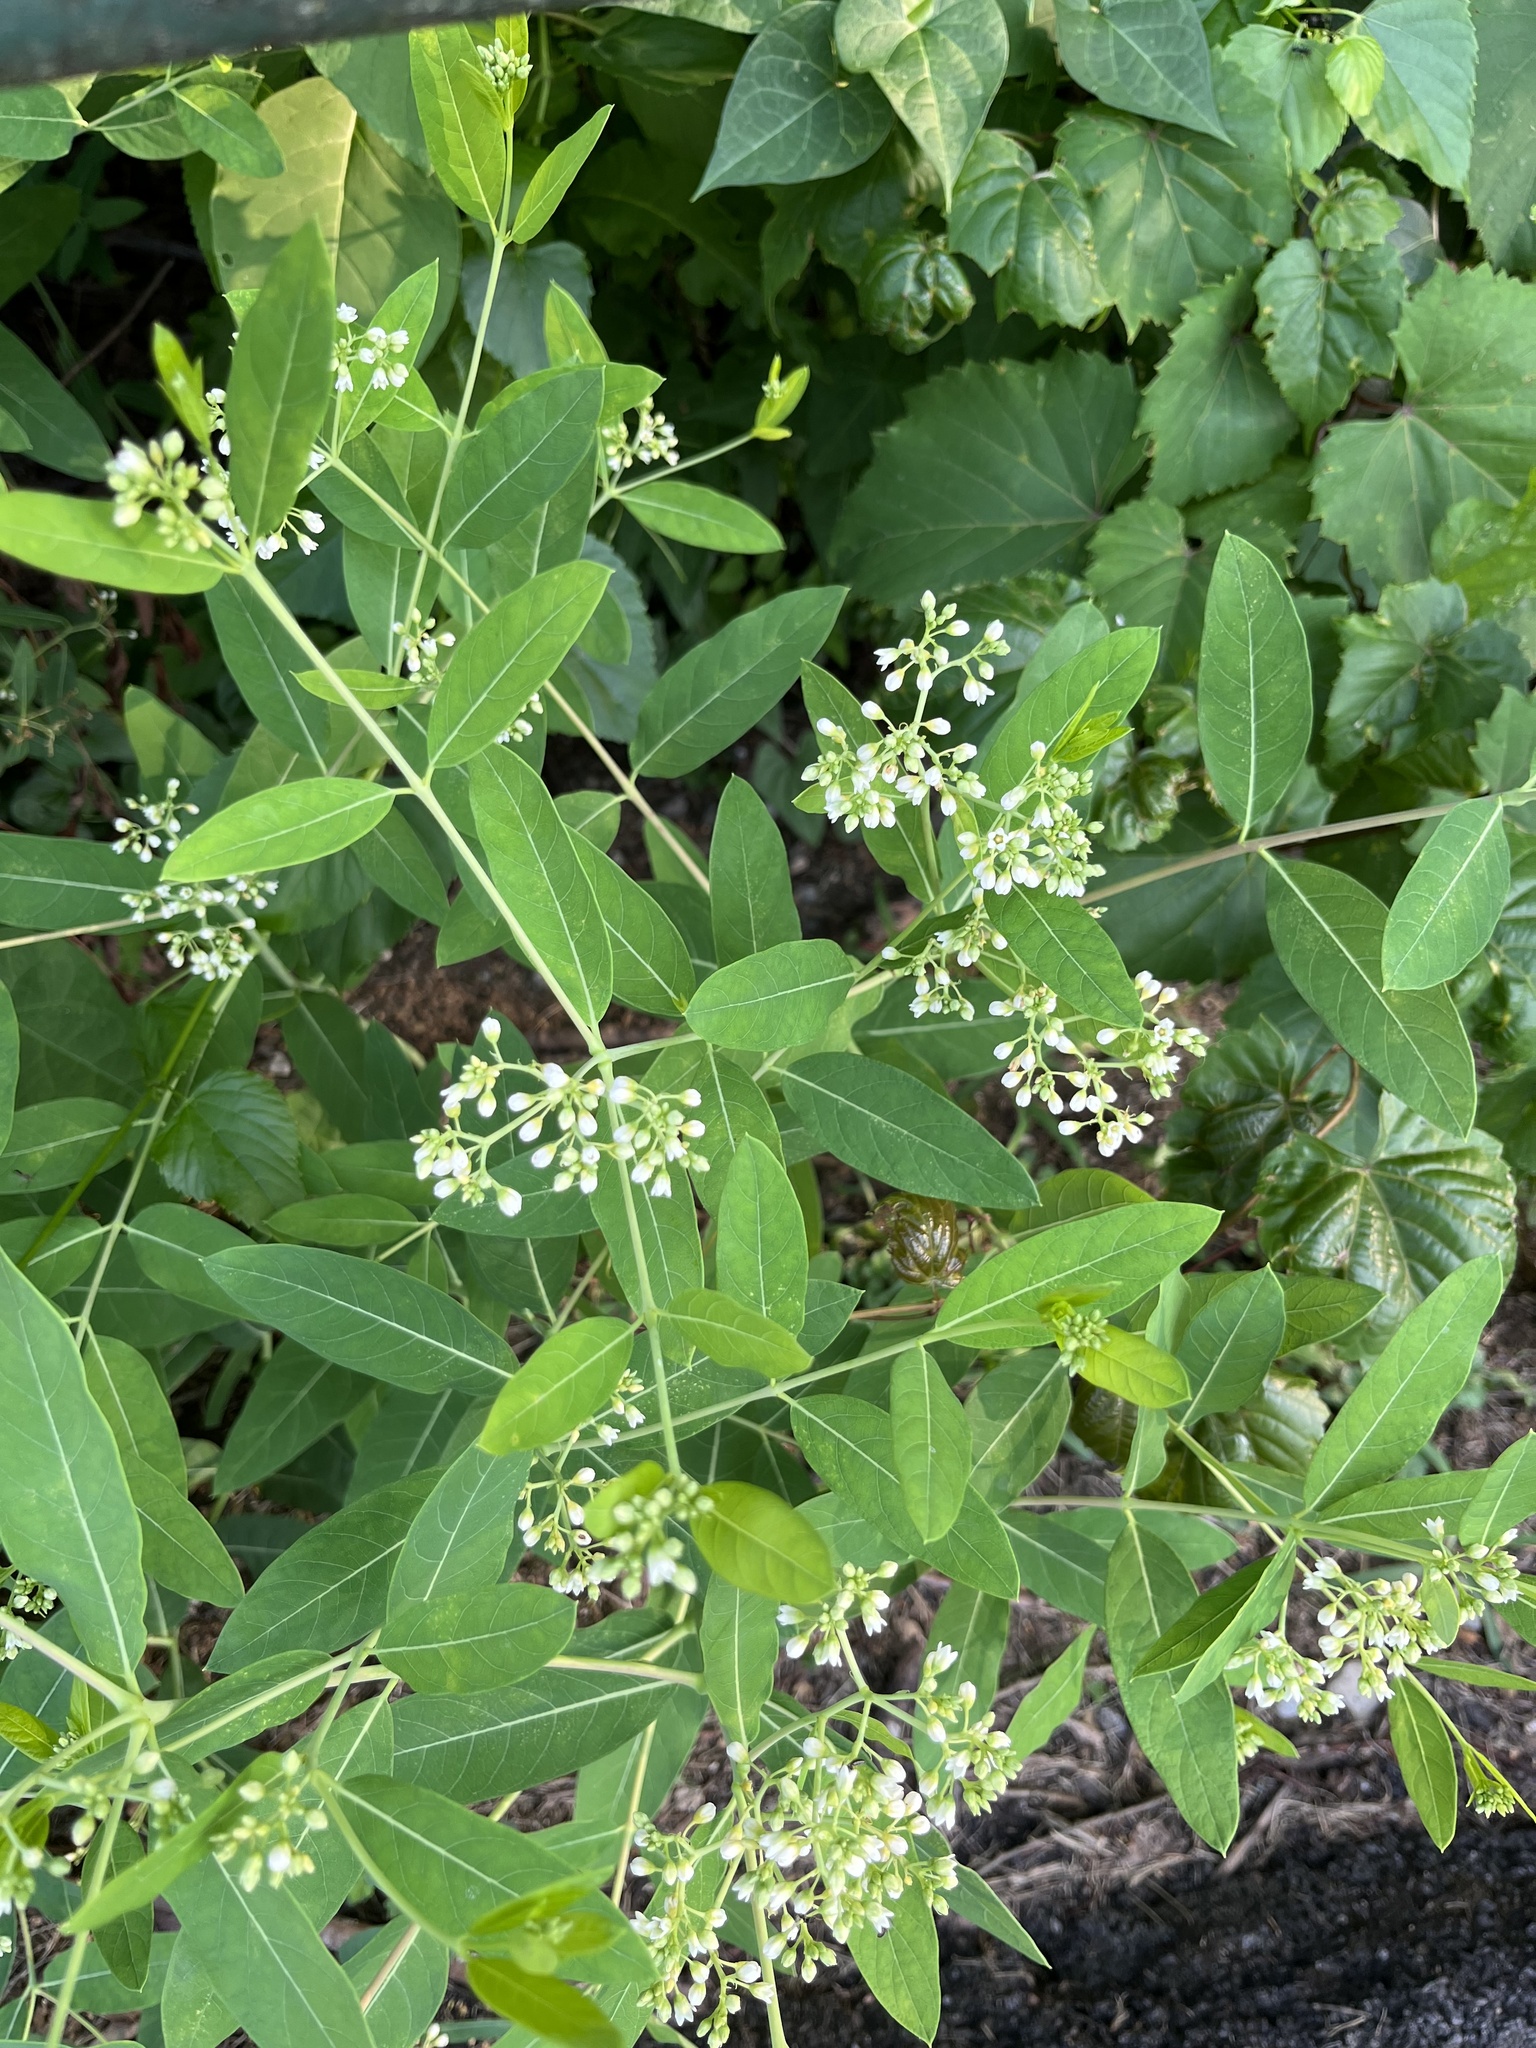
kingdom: Plantae
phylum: Tracheophyta
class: Magnoliopsida
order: Gentianales
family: Apocynaceae
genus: Apocynum
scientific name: Apocynum cannabinum
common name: Hemp dogbane
